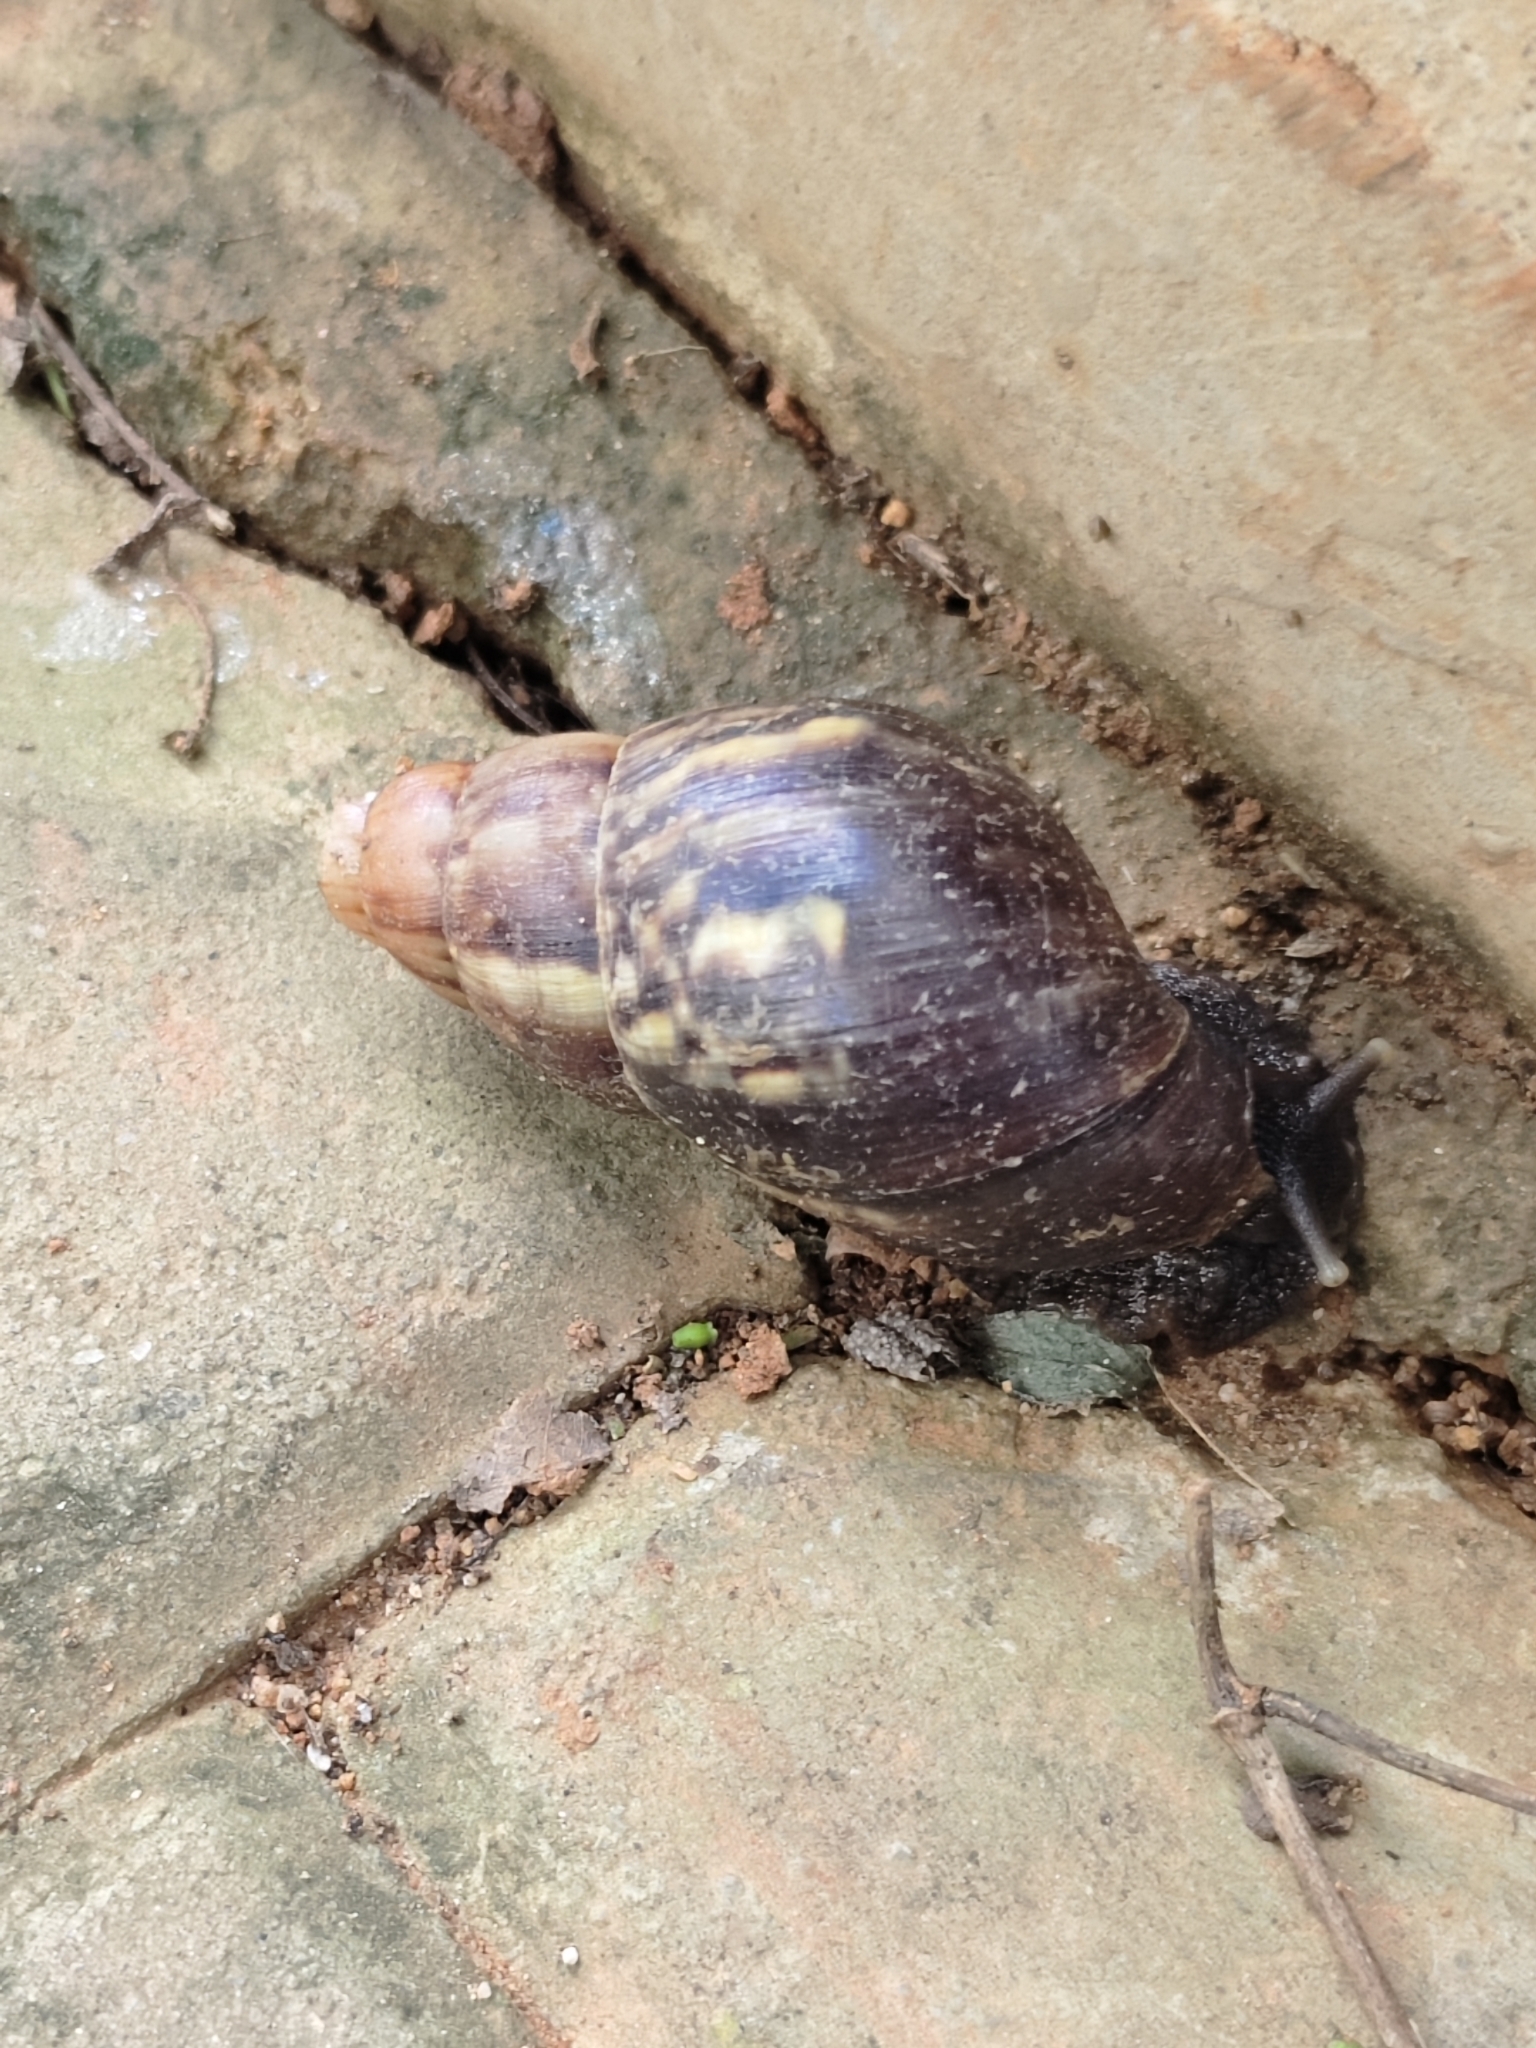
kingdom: Animalia
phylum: Mollusca
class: Gastropoda
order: Stylommatophora
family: Achatinidae
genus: Lissachatina
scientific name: Lissachatina fulica
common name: Giant african snail
